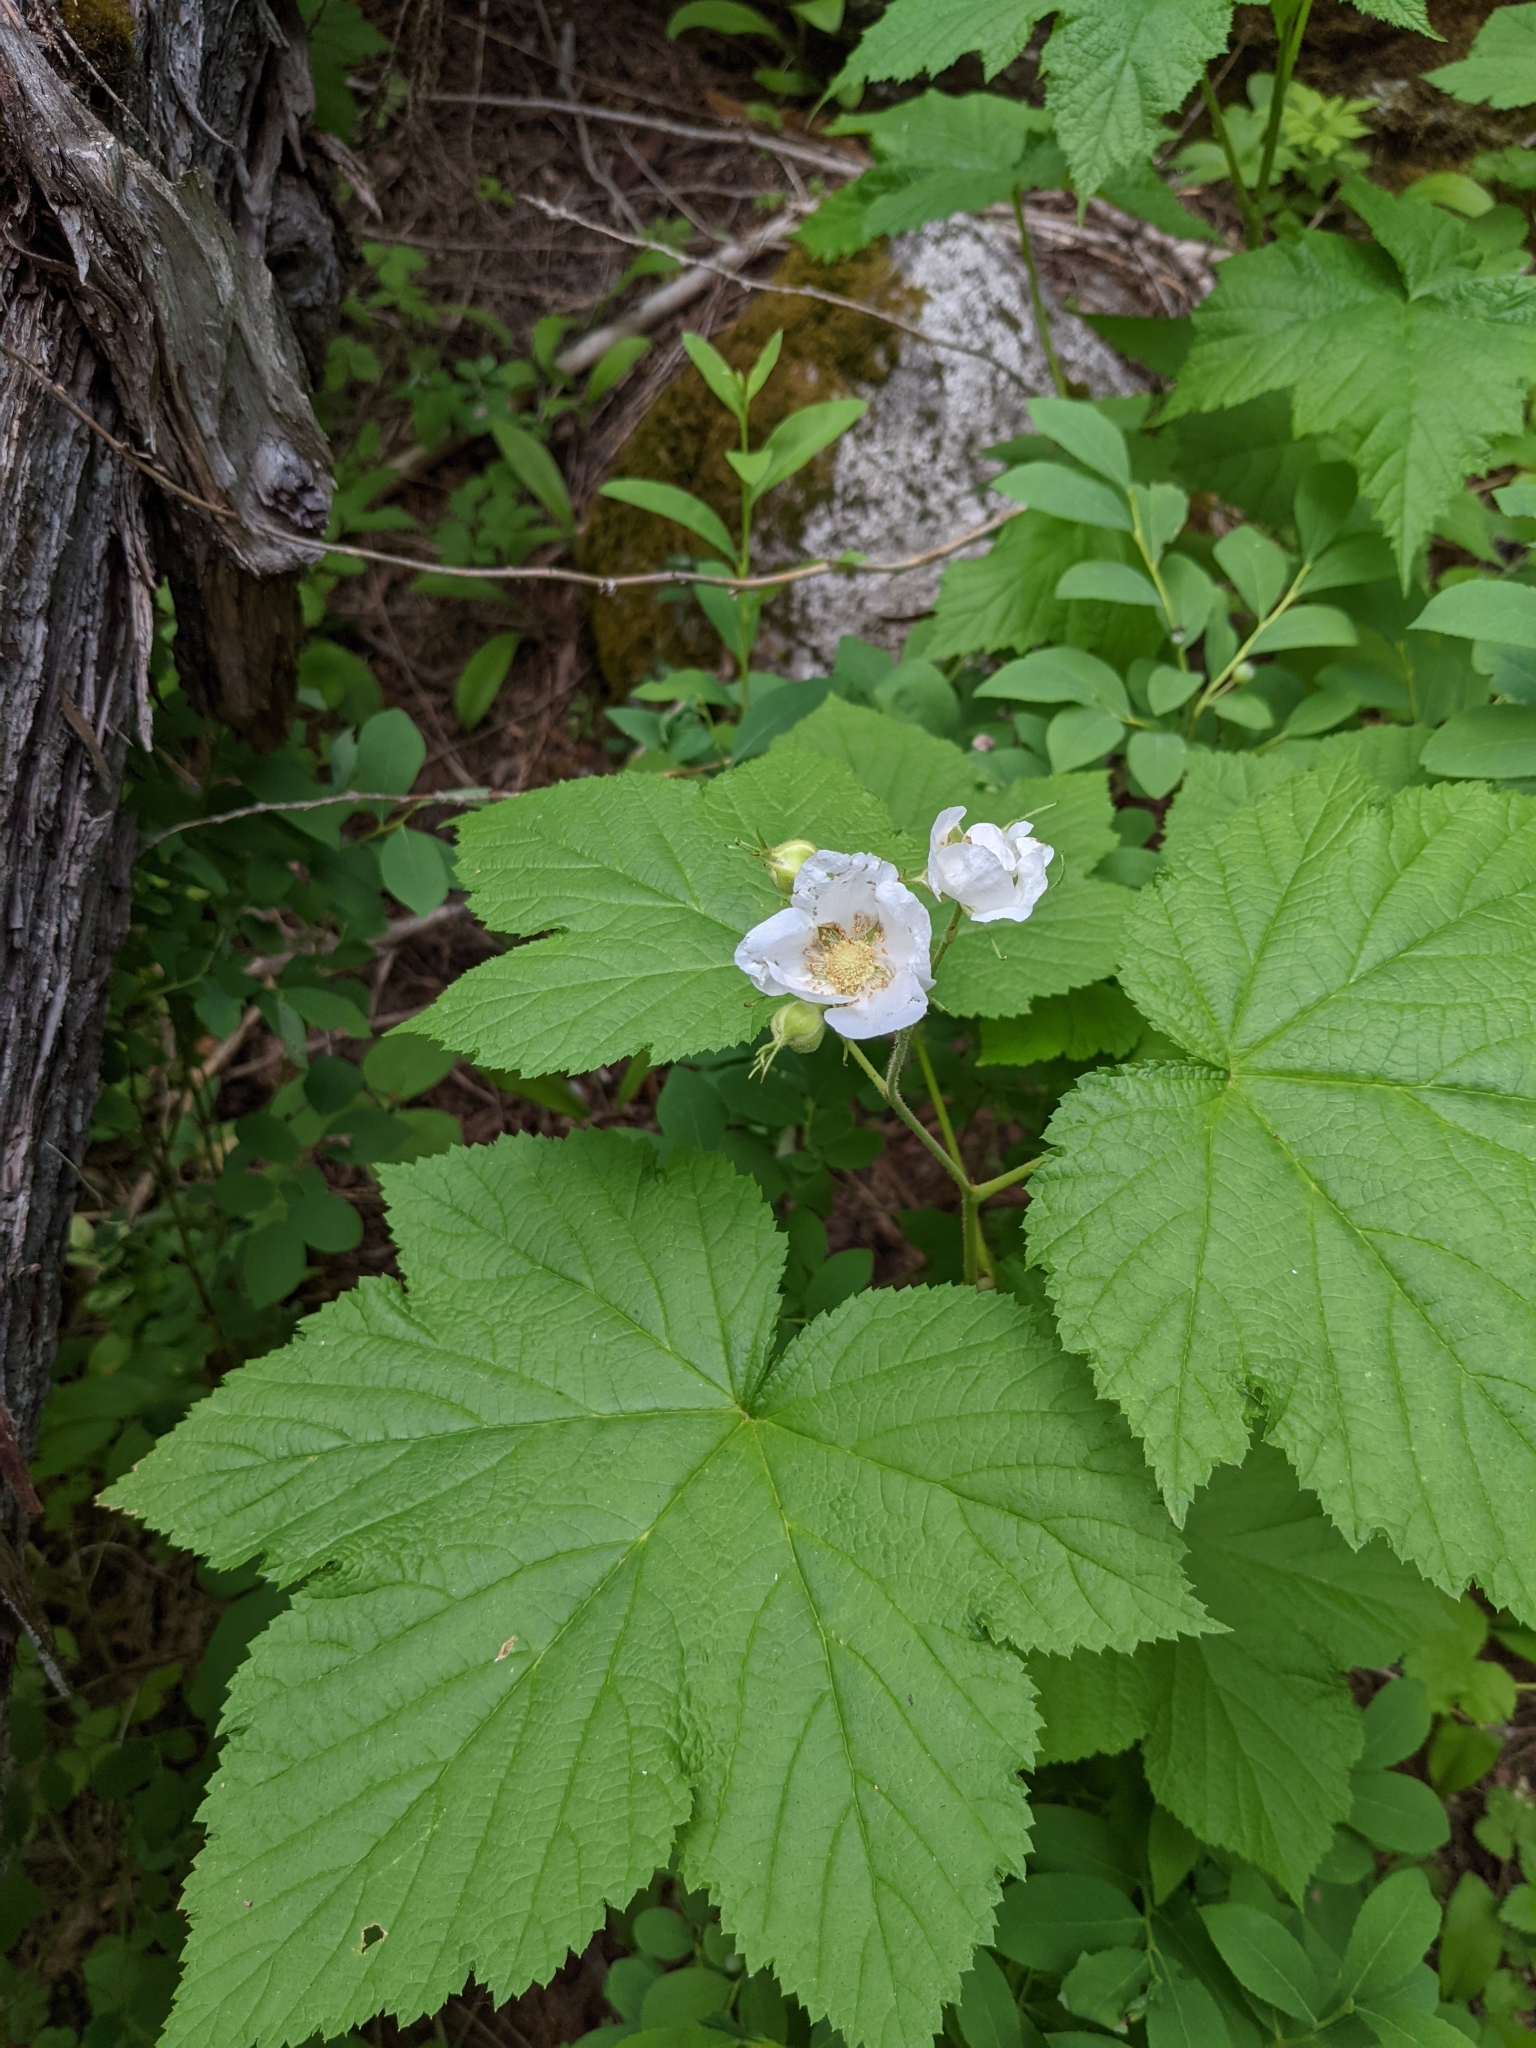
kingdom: Plantae
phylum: Tracheophyta
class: Magnoliopsida
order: Rosales
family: Rosaceae
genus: Rubus
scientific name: Rubus parviflorus
